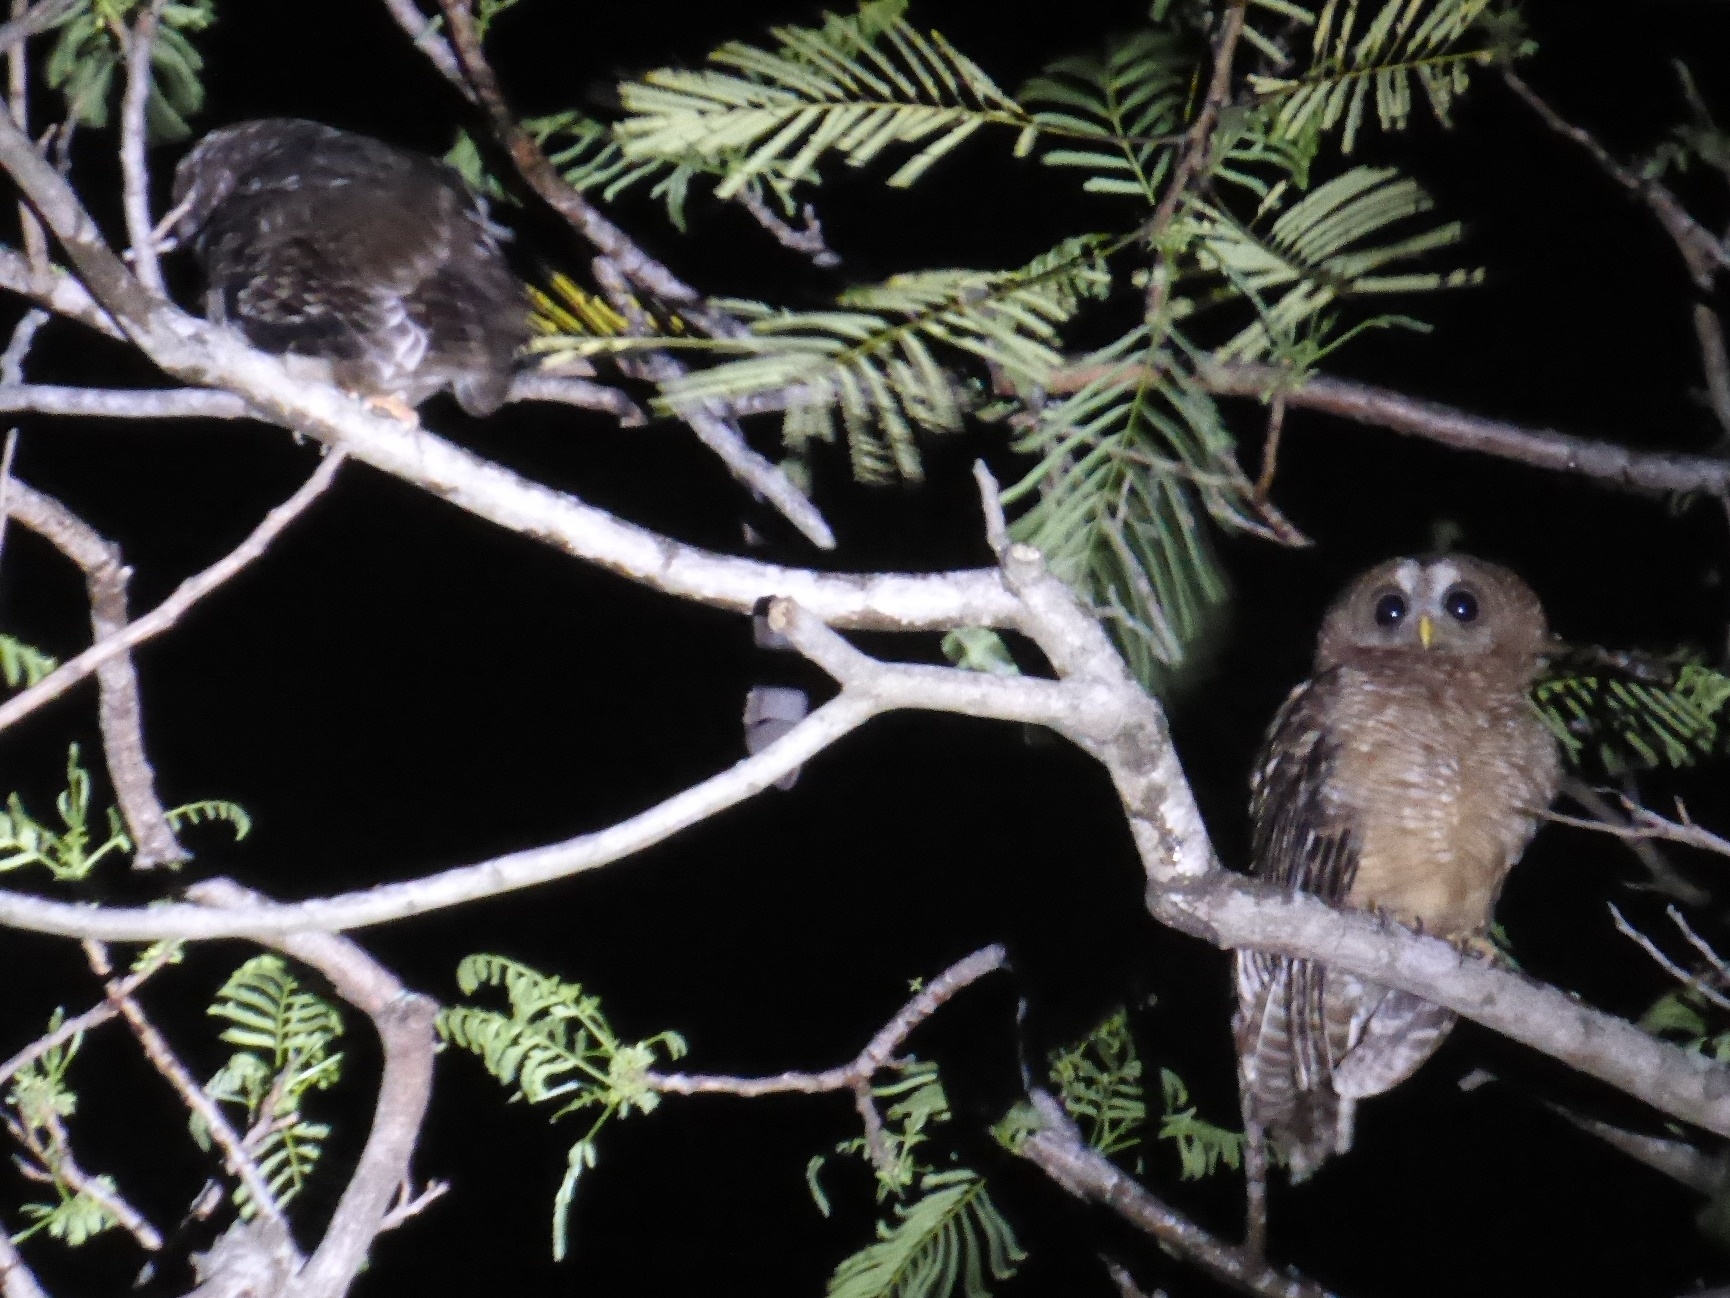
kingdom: Animalia
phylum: Chordata
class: Aves
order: Strigiformes
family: Strigidae
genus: Strix
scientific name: Strix woodfordii
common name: African wood owl
